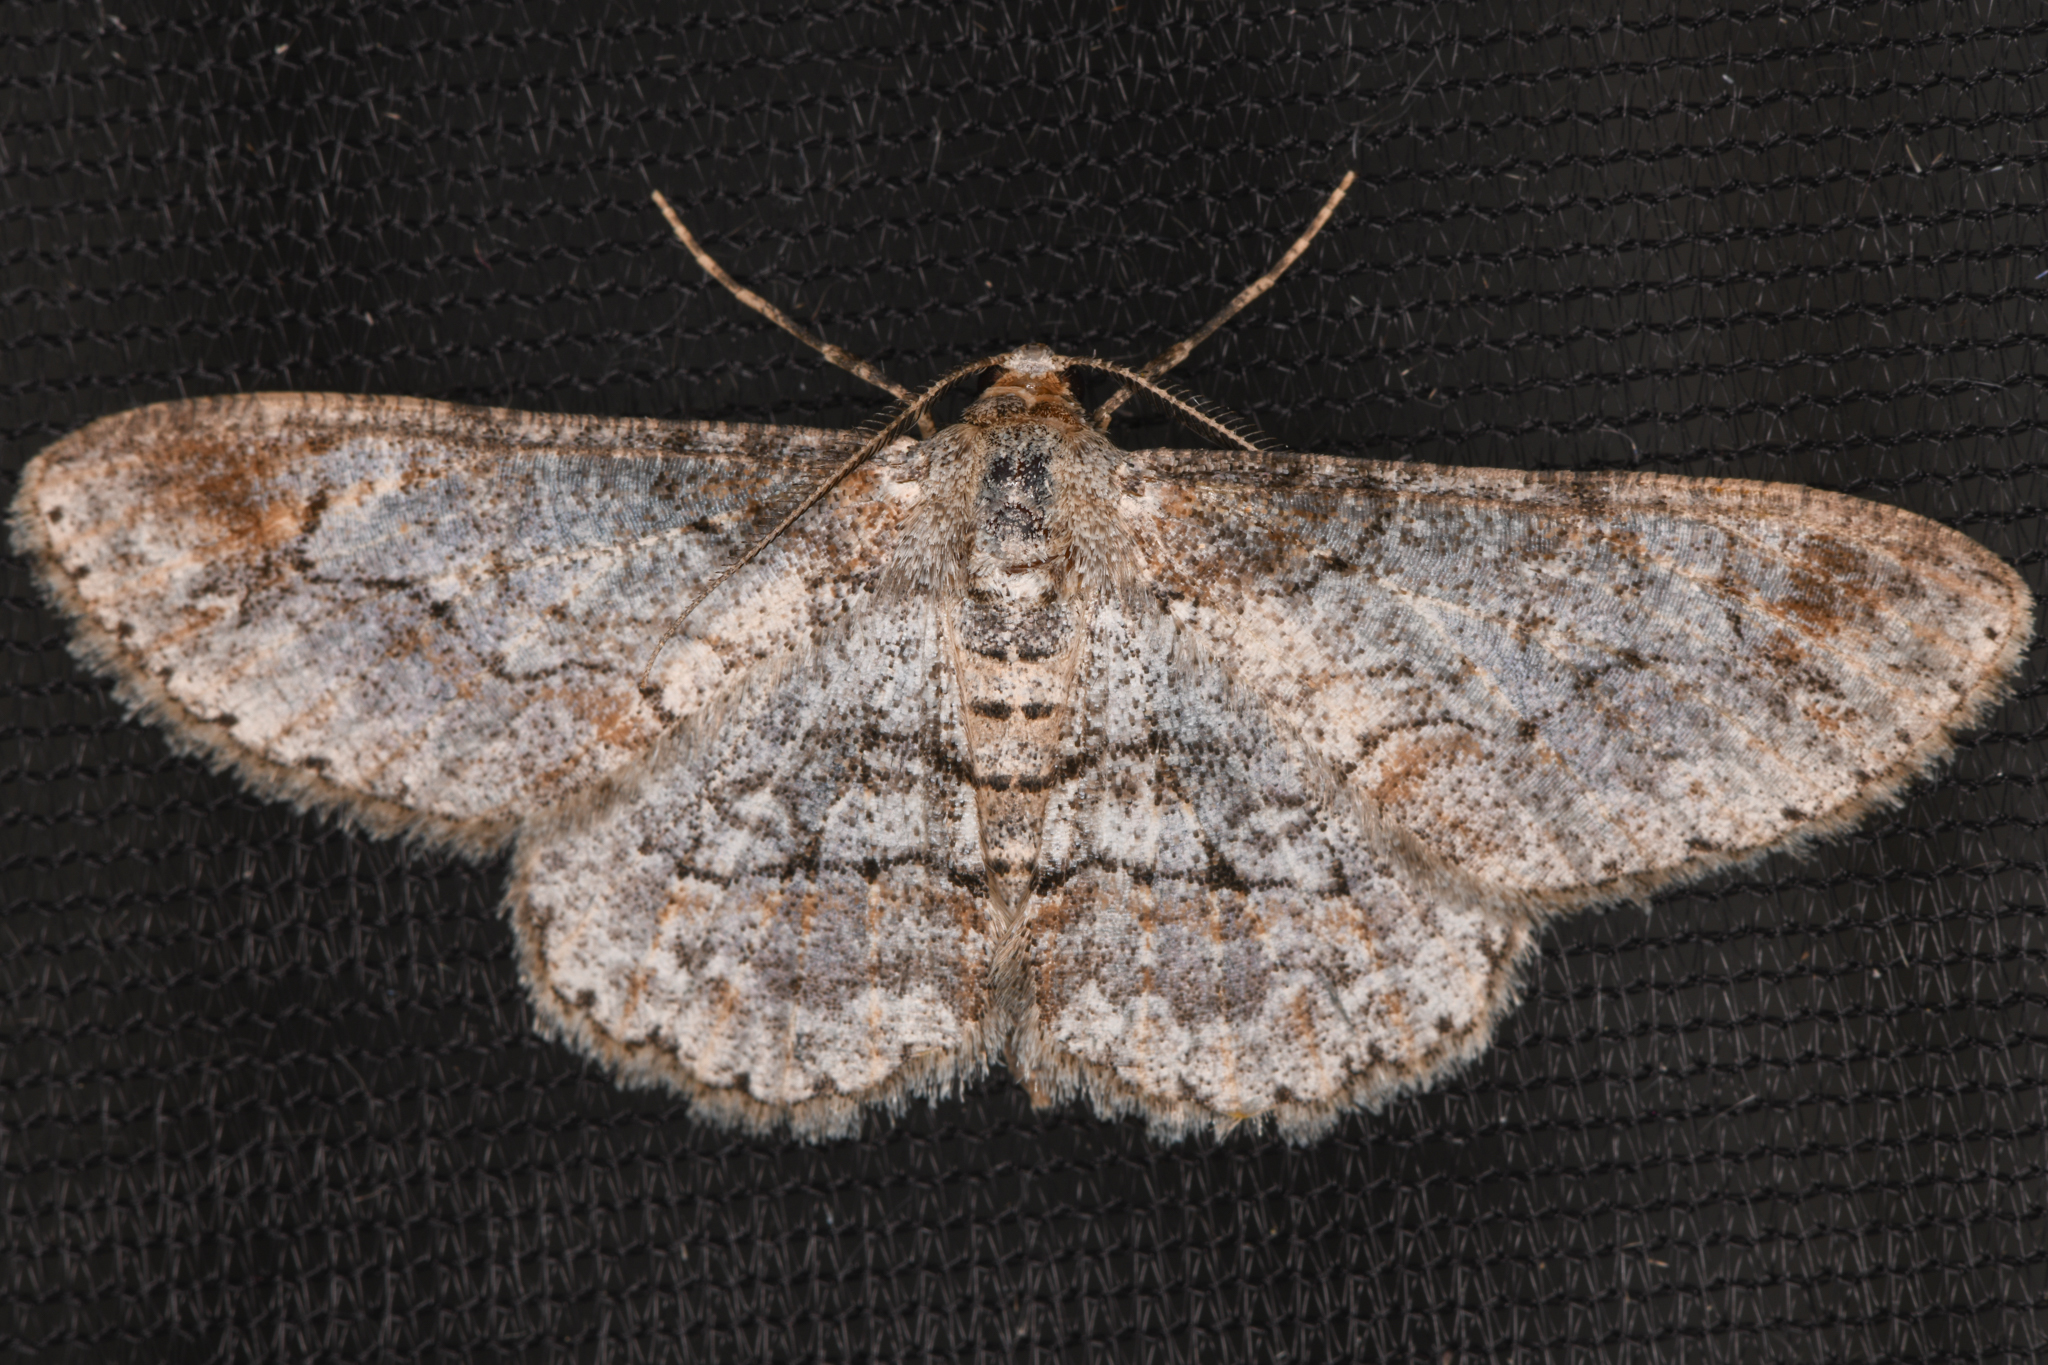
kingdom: Animalia
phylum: Arthropoda
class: Insecta
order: Lepidoptera
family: Geometridae
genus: Iridopsis
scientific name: Iridopsis emasculatum
